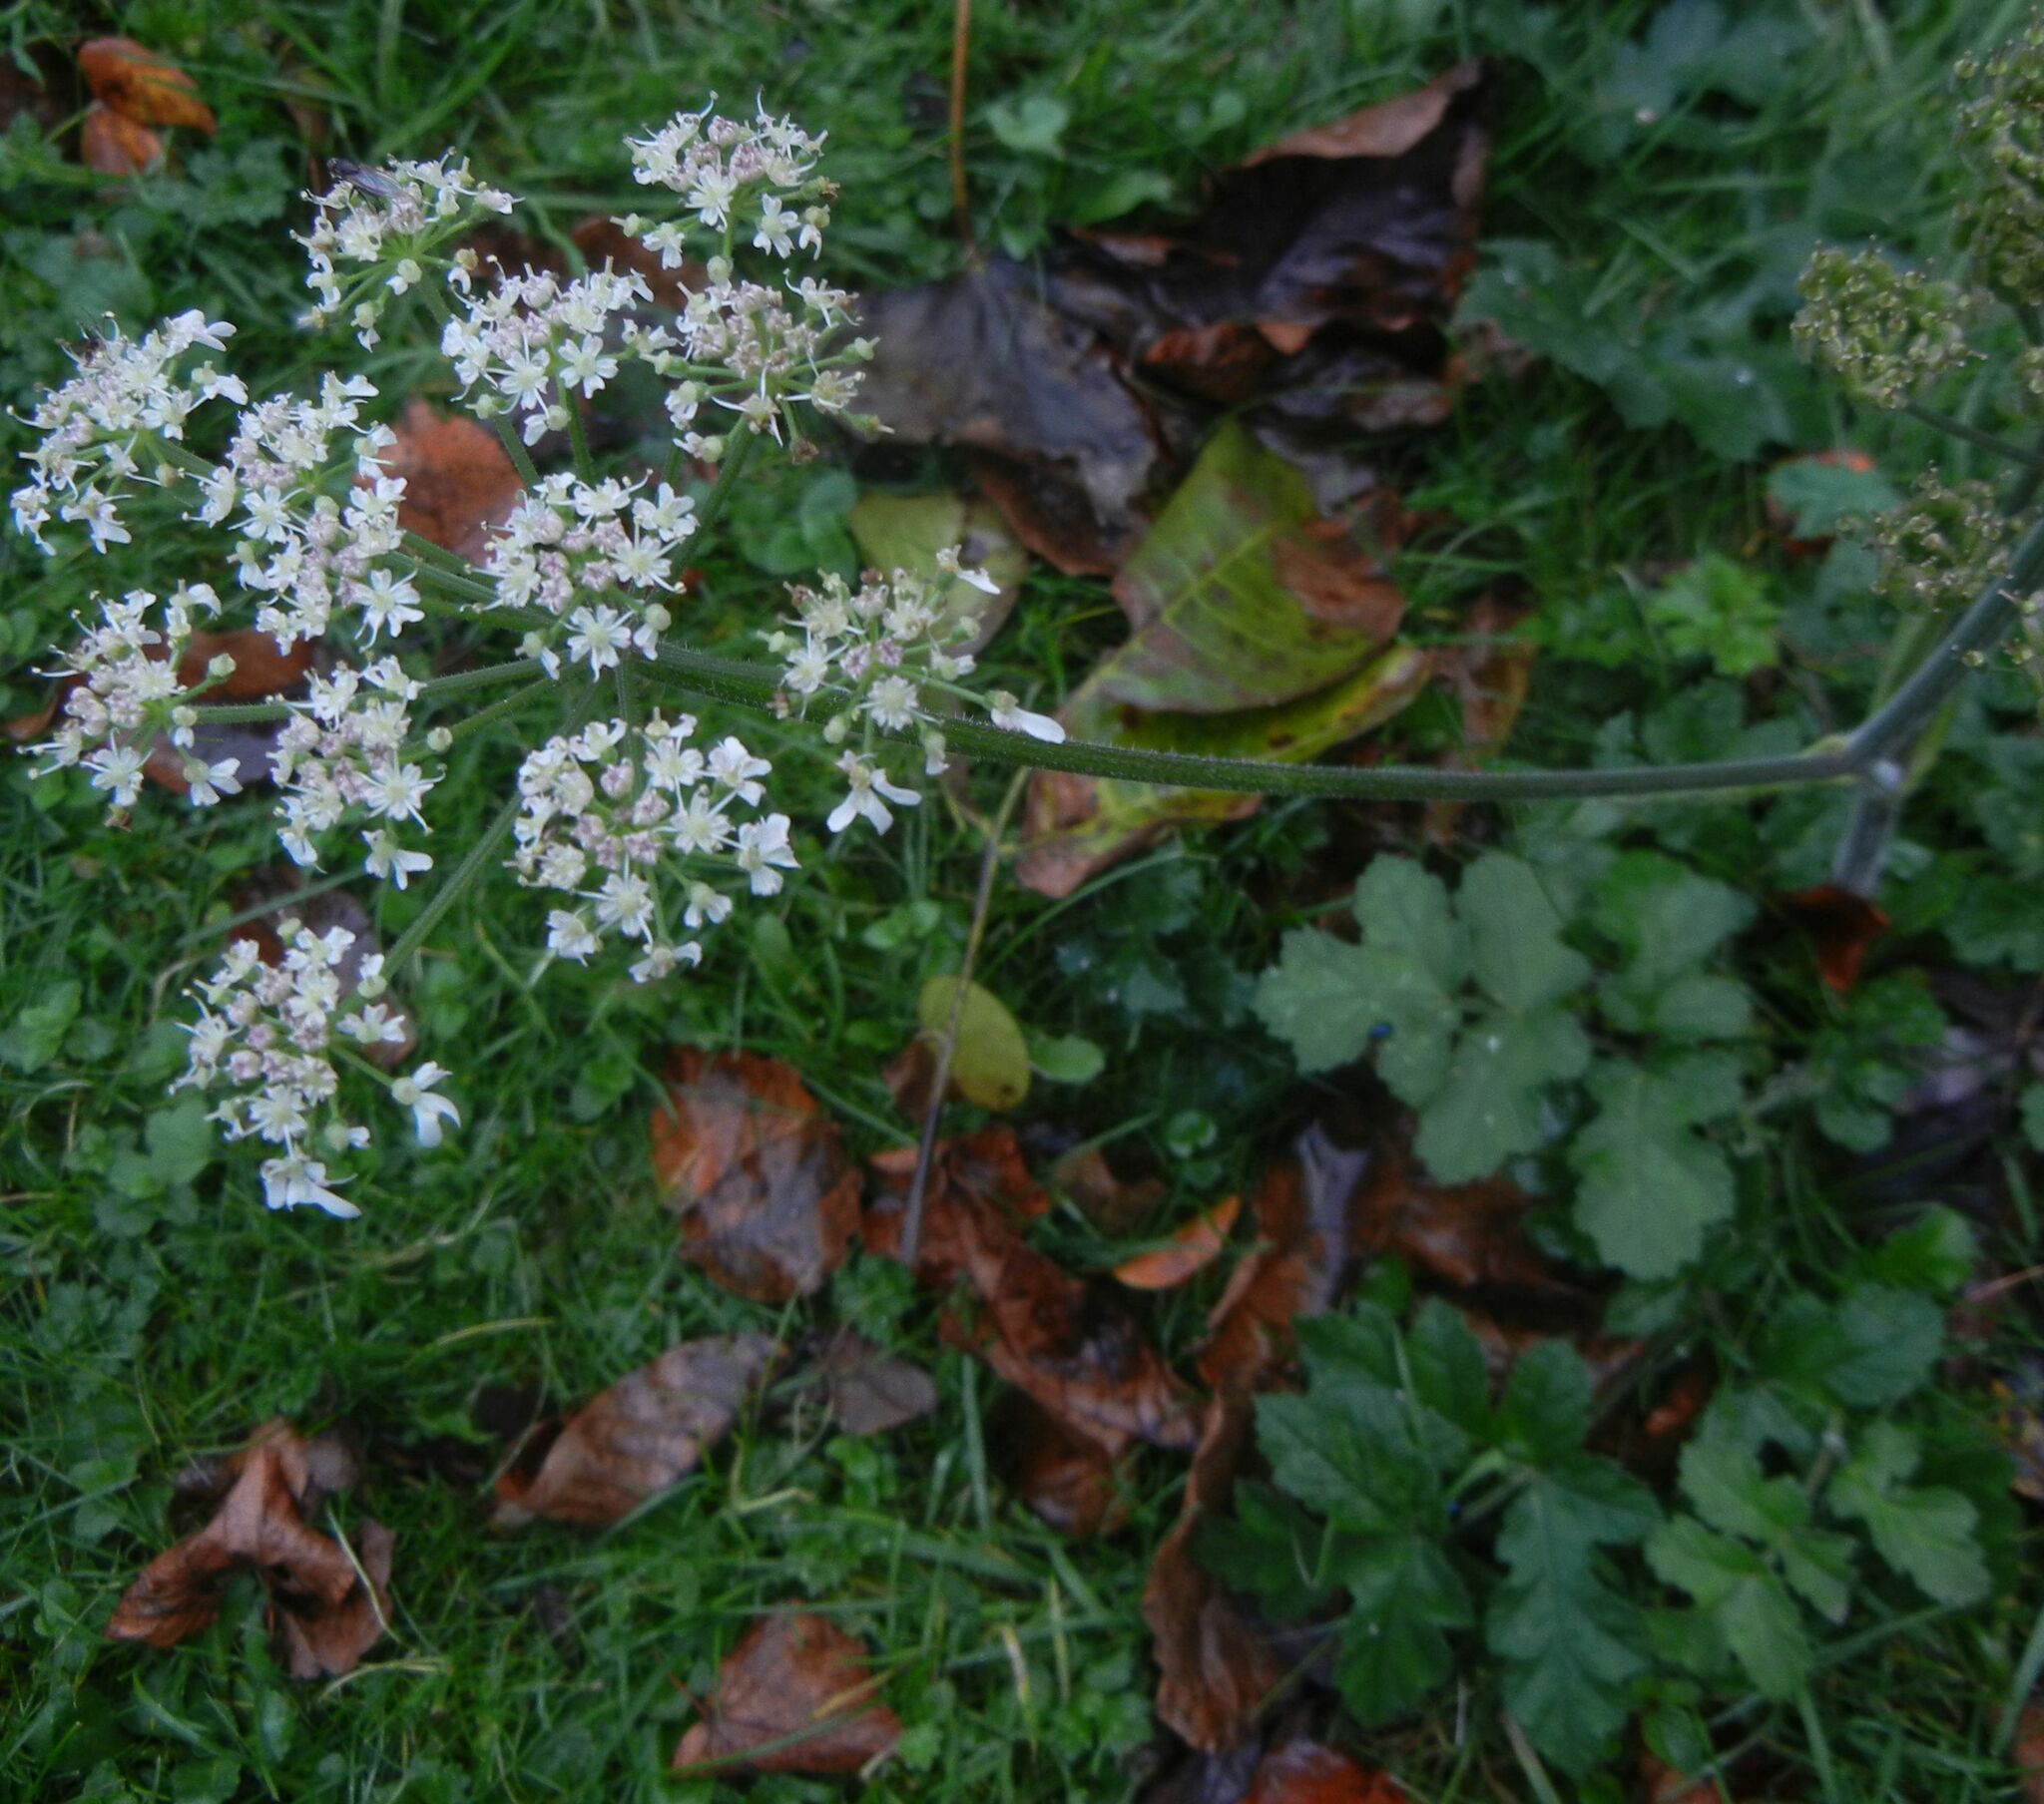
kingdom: Plantae
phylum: Tracheophyta
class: Magnoliopsida
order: Apiales
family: Apiaceae
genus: Heracleum
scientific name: Heracleum sphondylium
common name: Hogweed
